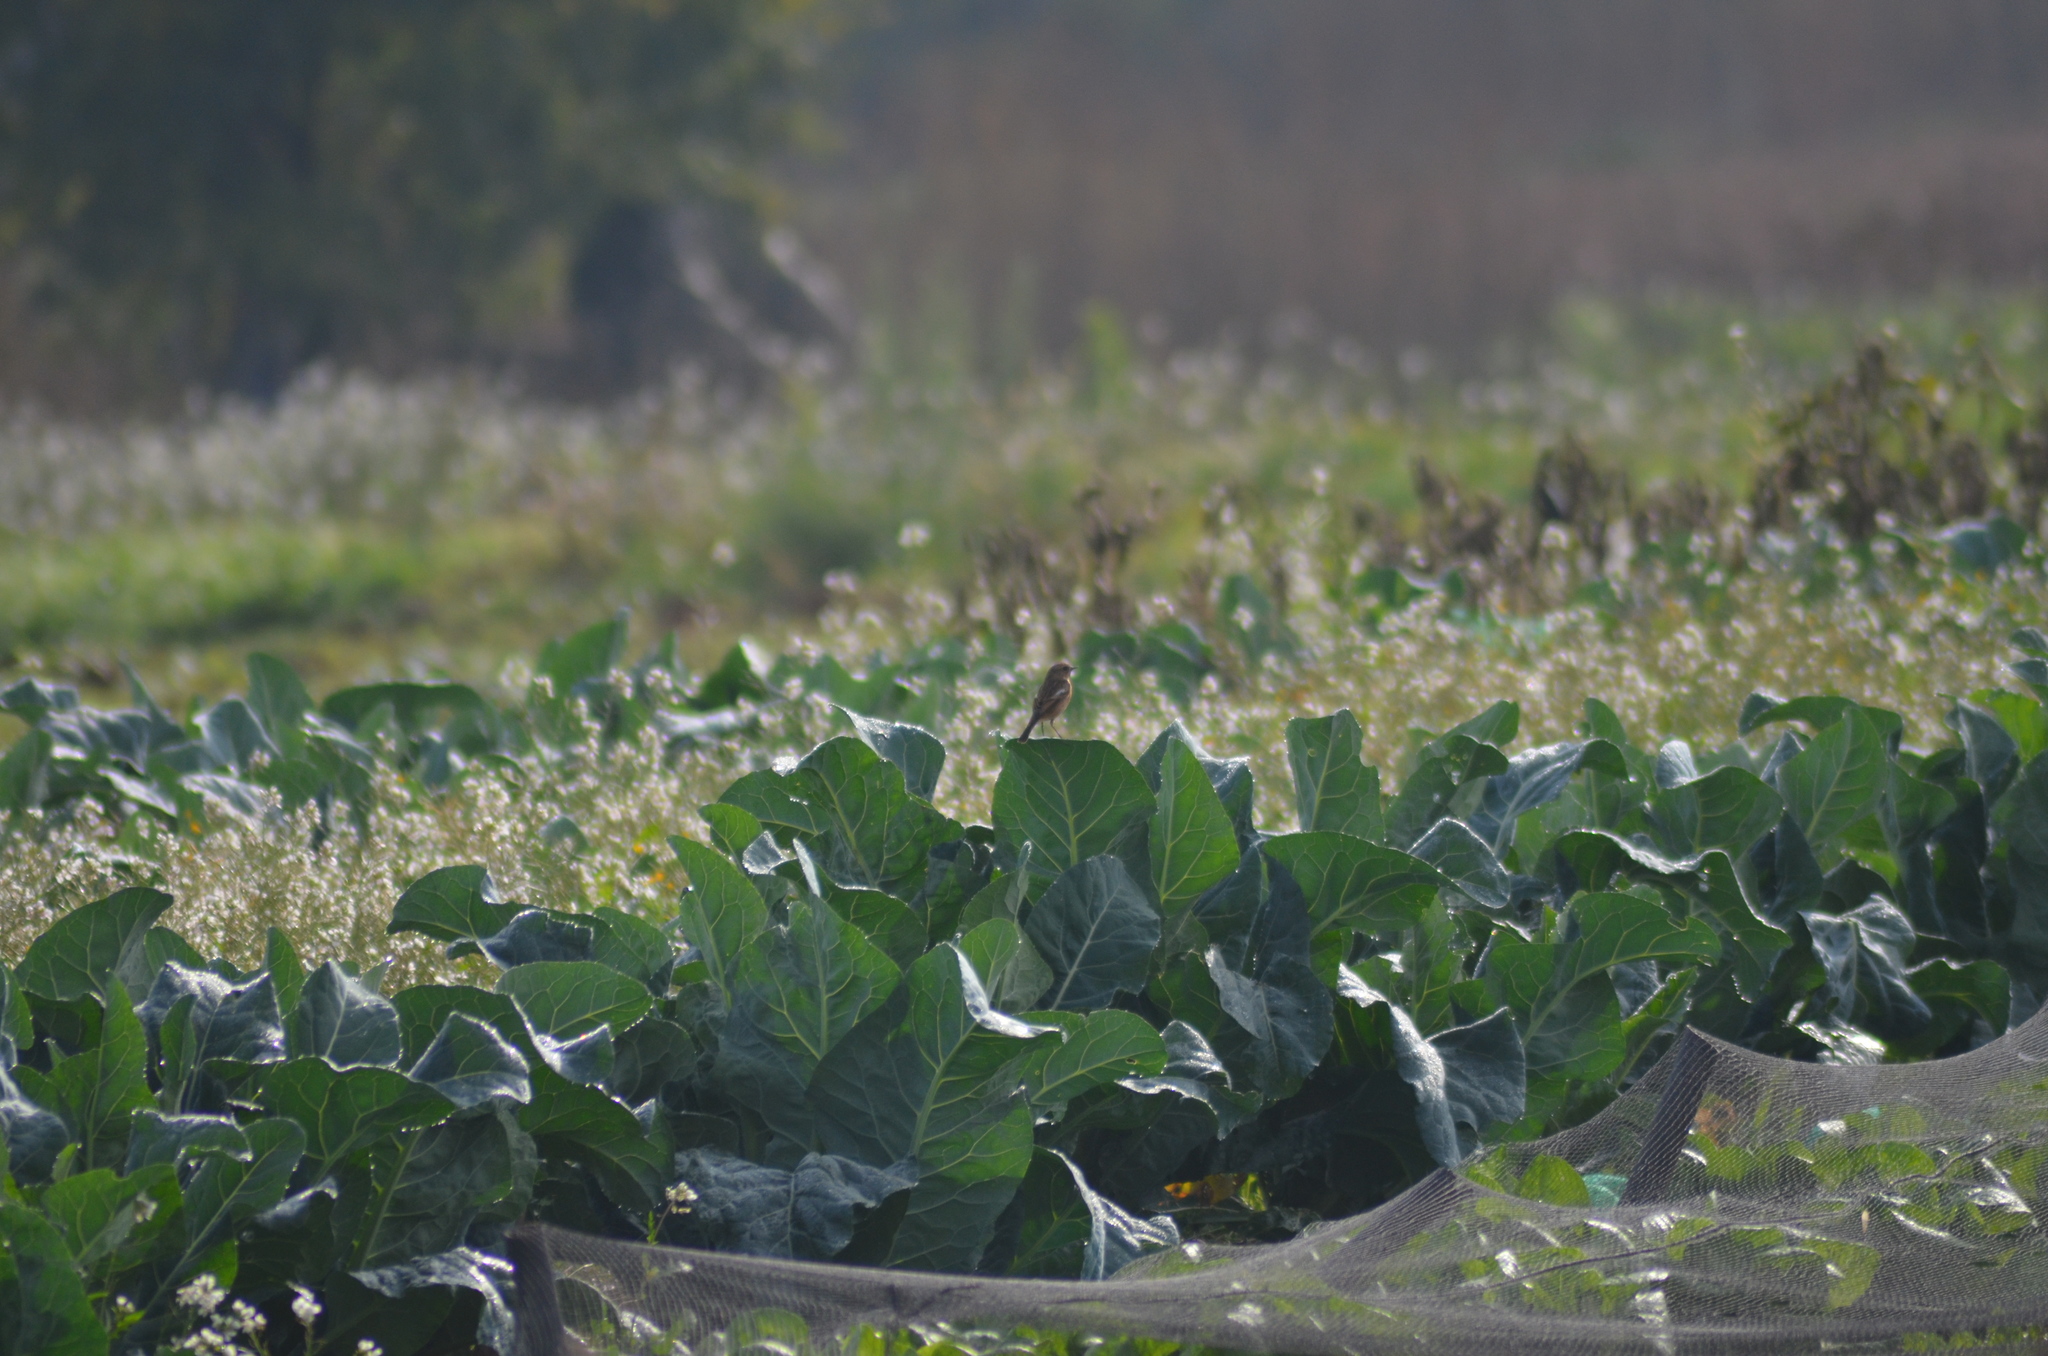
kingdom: Animalia
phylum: Chordata
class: Aves
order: Passeriformes
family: Muscicapidae
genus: Saxicola
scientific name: Saxicola rubicola
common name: European stonechat
